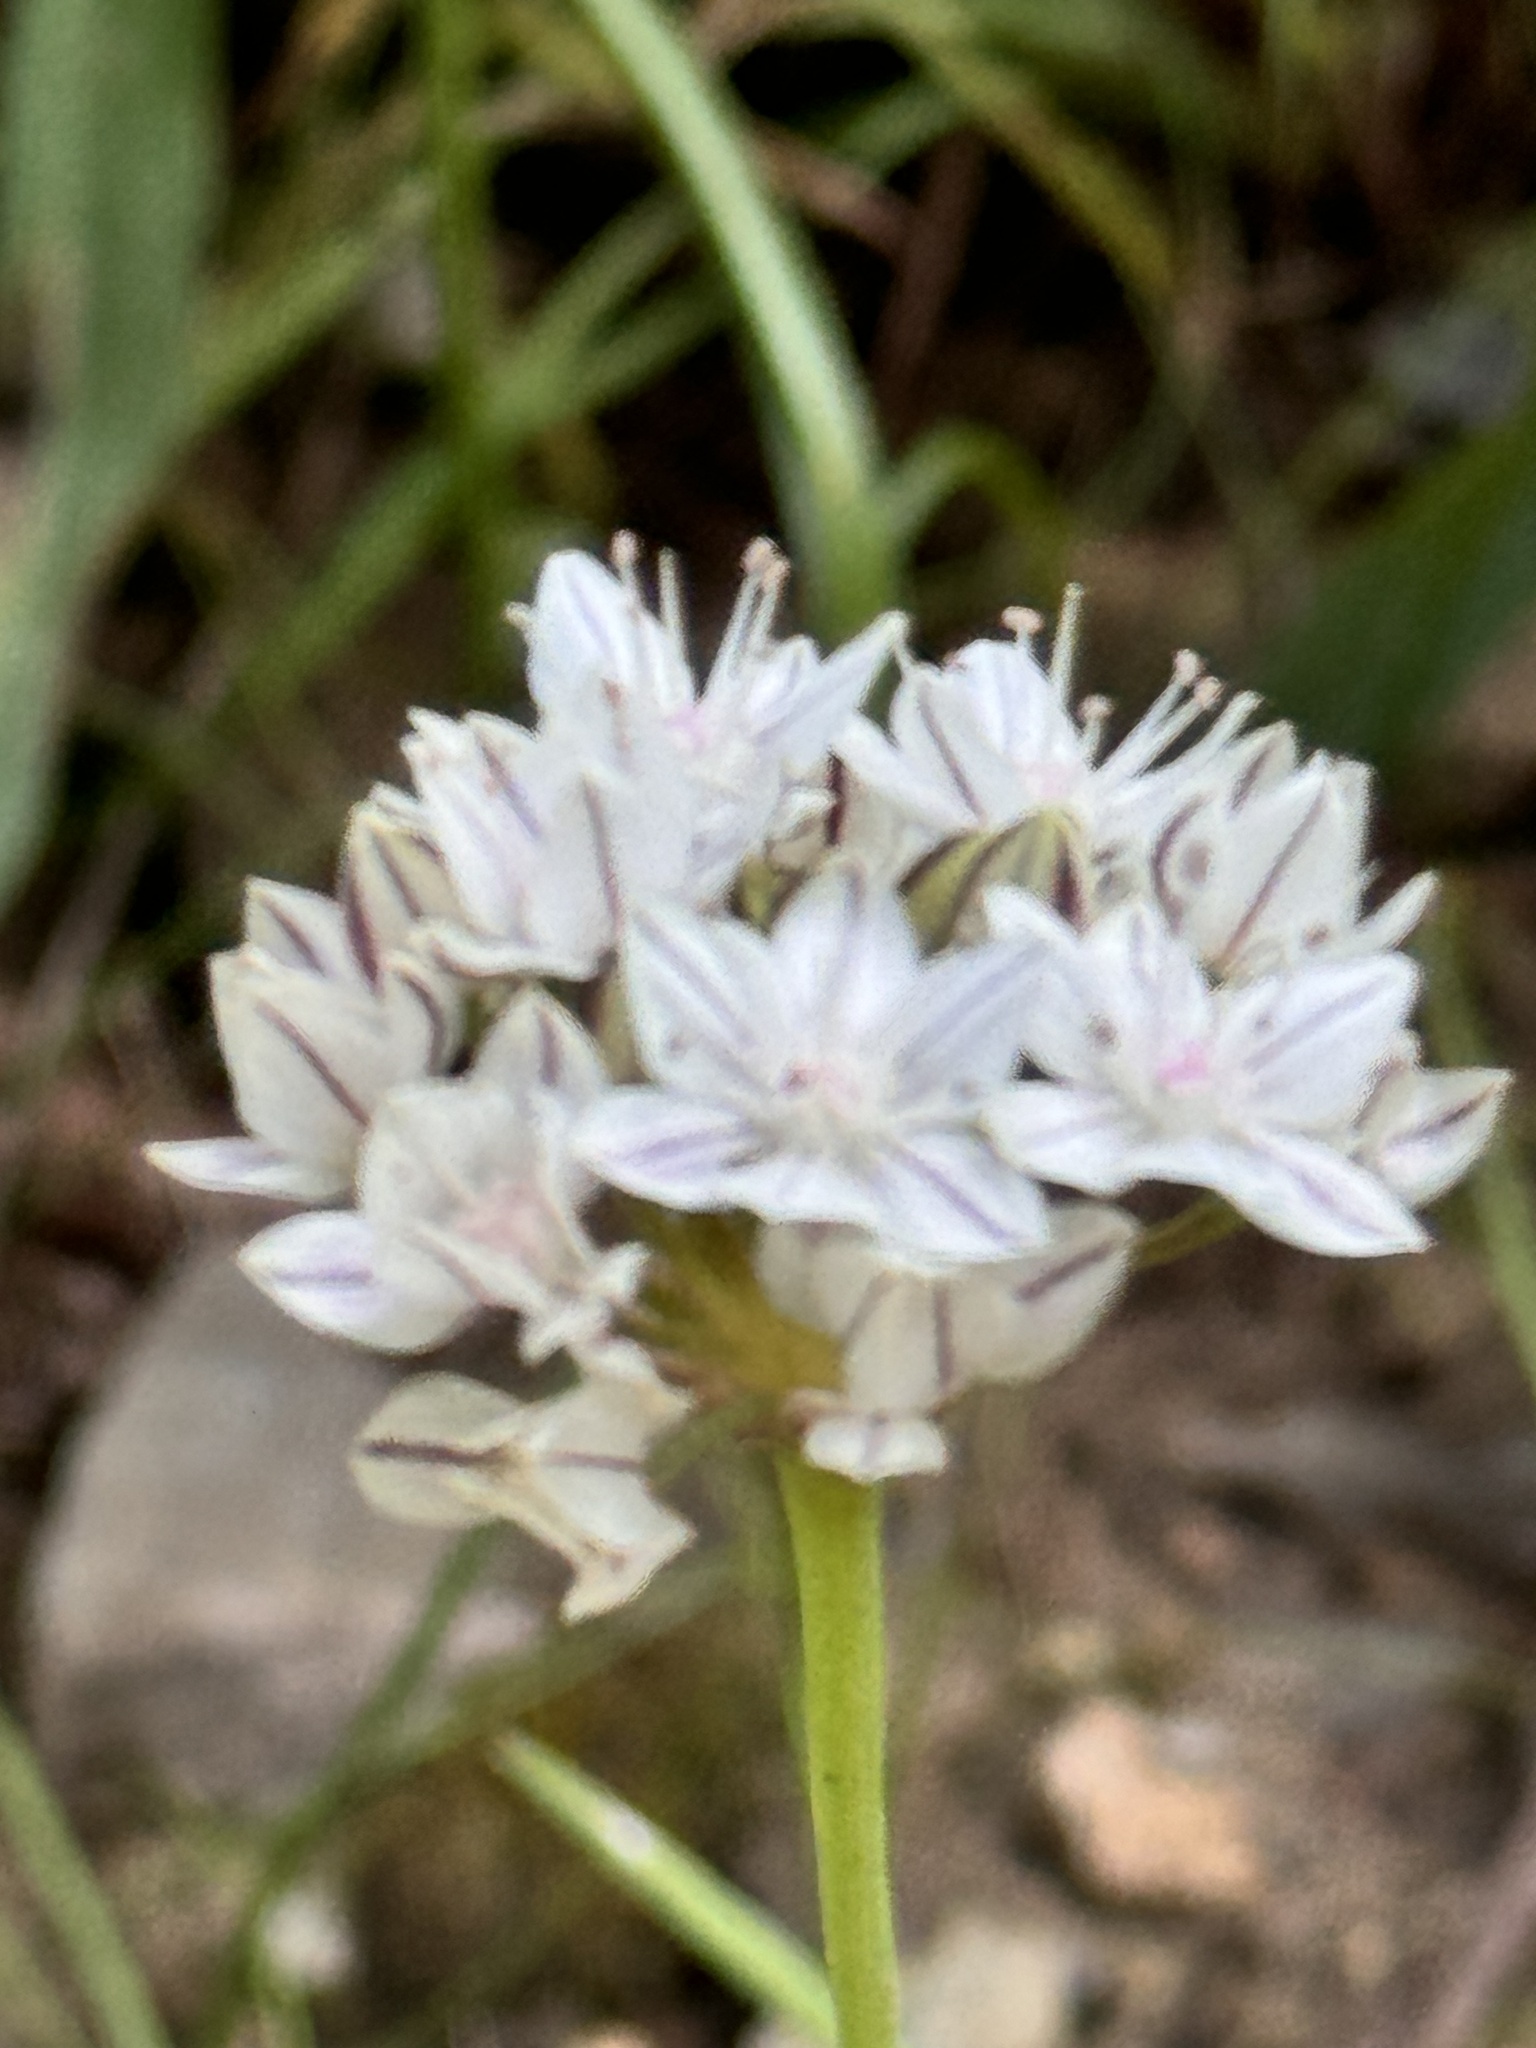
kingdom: Plantae
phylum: Tracheophyta
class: Liliopsida
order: Asparagales
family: Amaryllidaceae
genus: Allium
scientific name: Allium haematochiton
